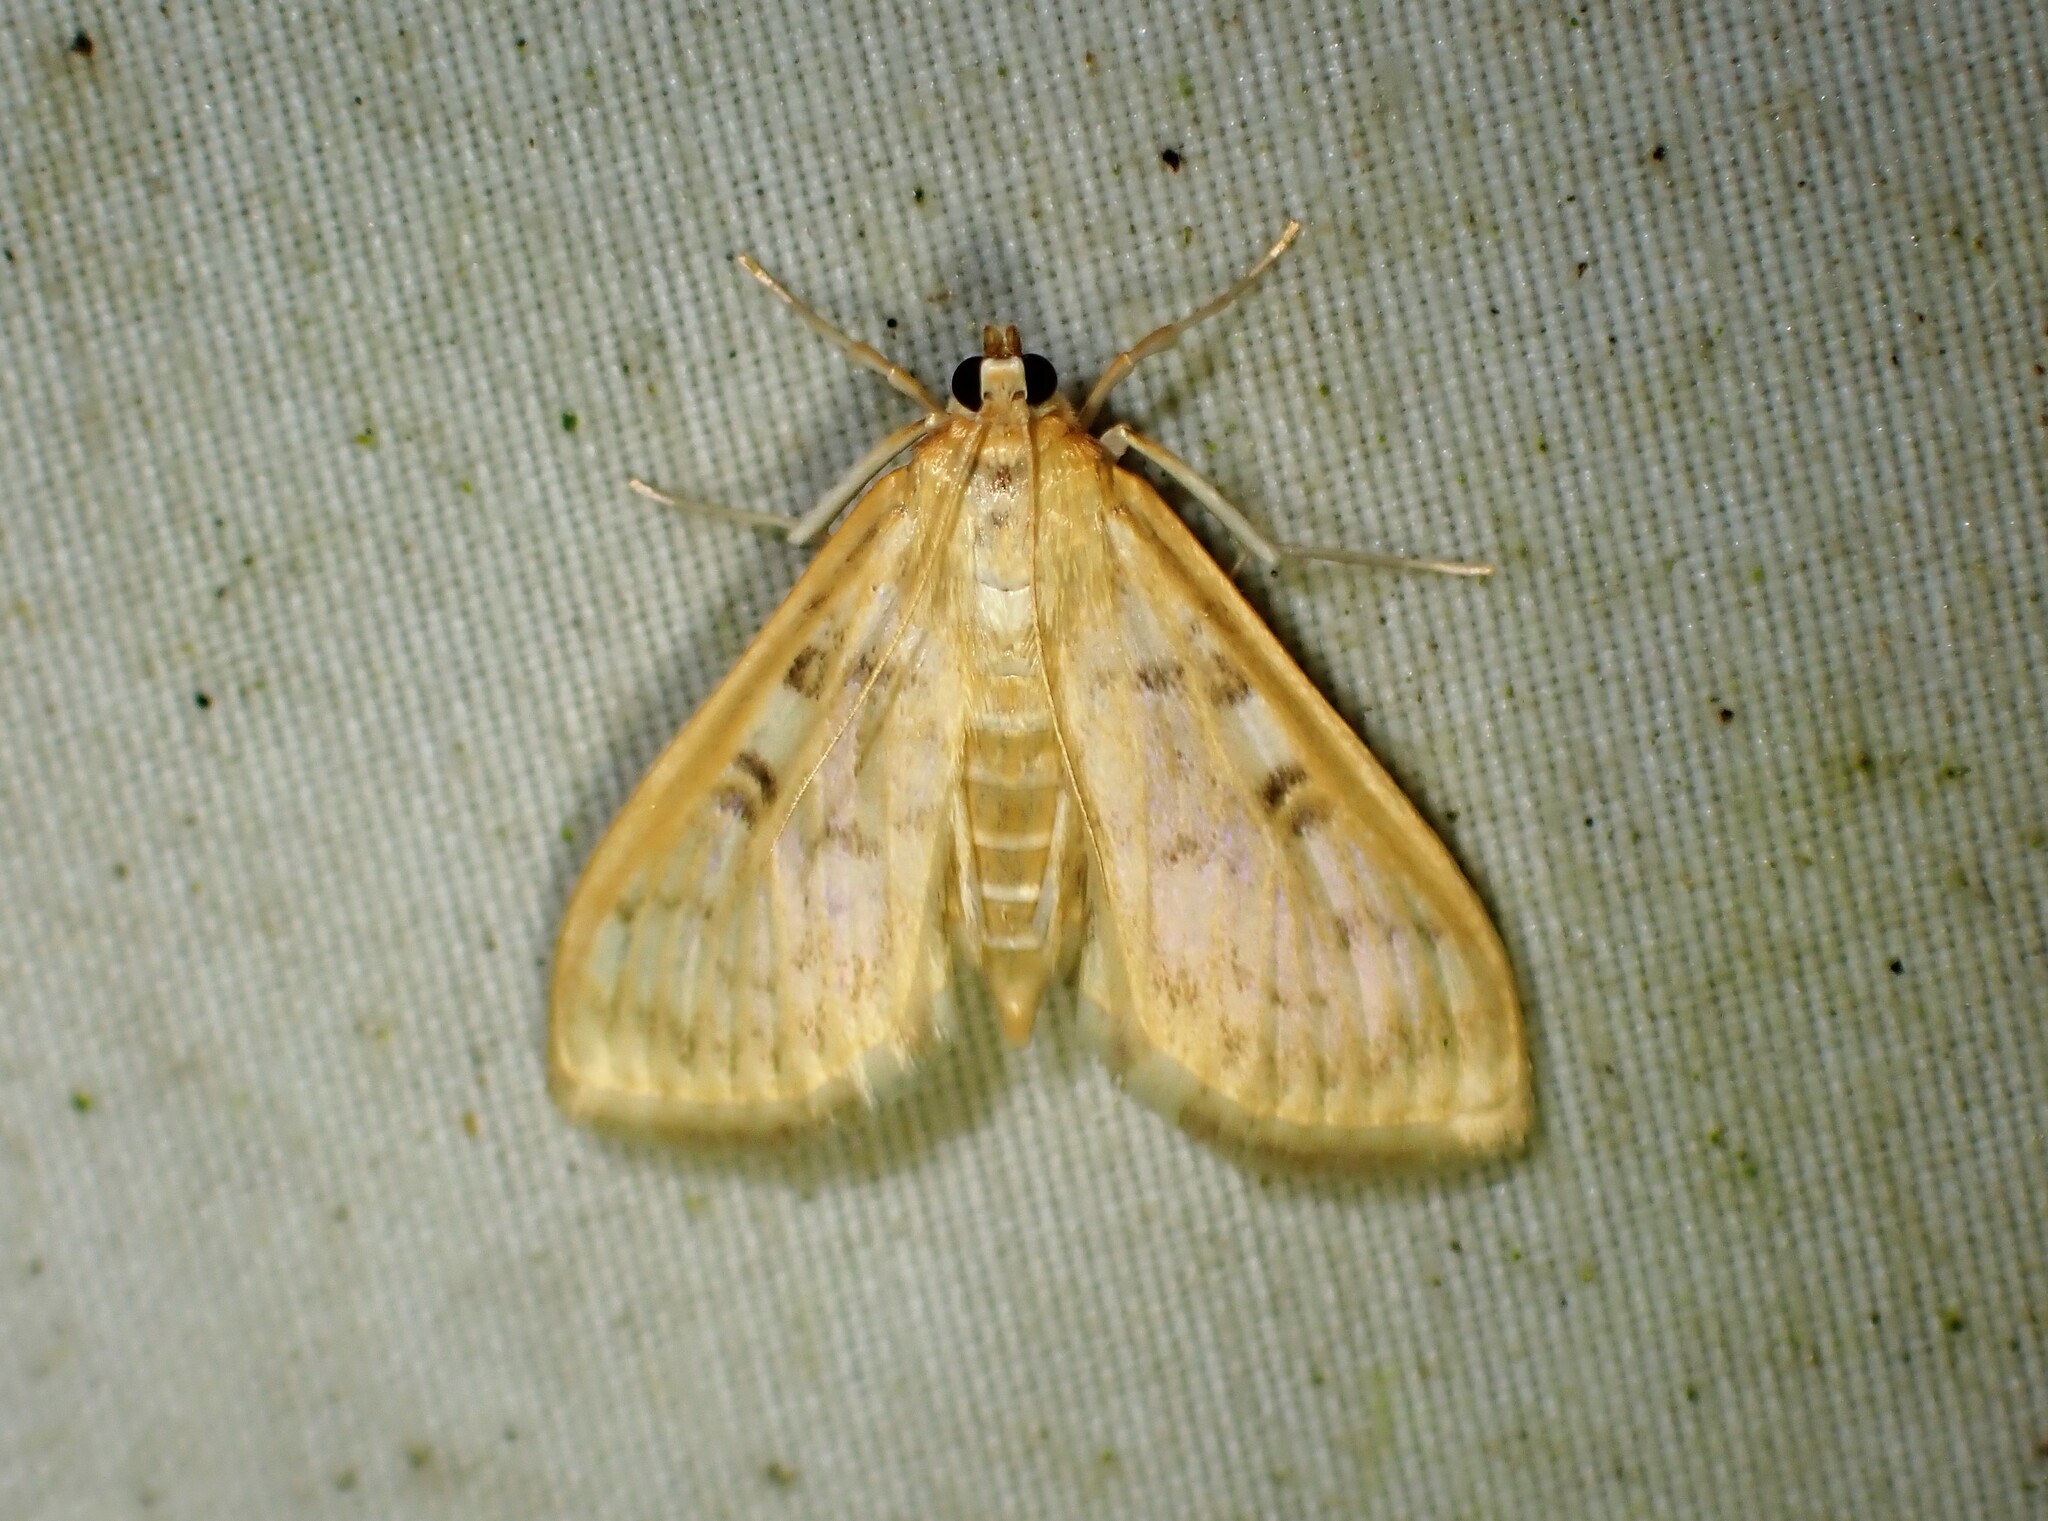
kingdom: Animalia
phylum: Arthropoda
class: Insecta
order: Lepidoptera
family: Crambidae
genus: Herpetogramma
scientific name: Herpetogramma aquilonalis
